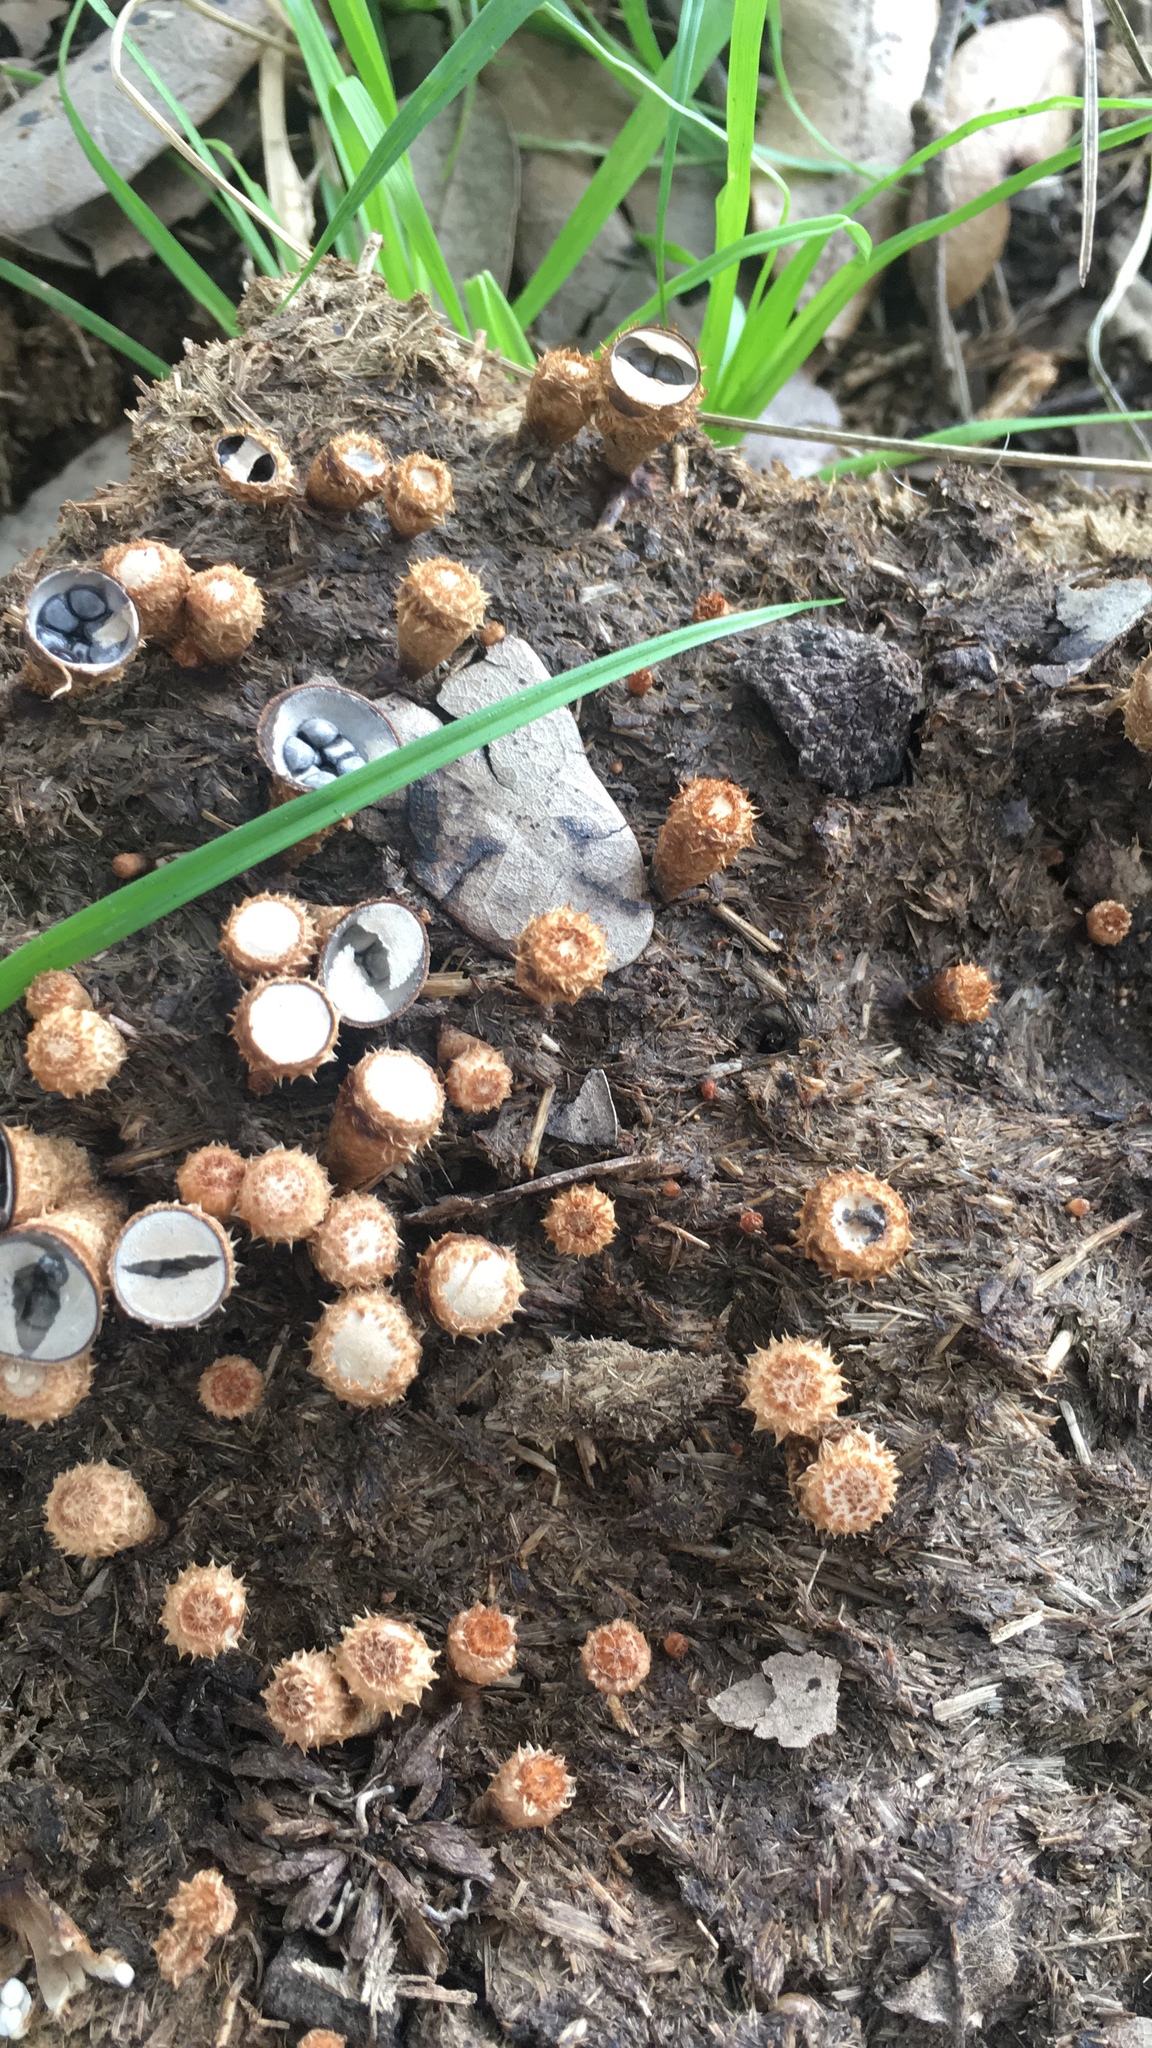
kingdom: Fungi
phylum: Basidiomycota
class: Agaricomycetes
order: Agaricales
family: Agaricaceae
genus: Cyathus
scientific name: Cyathus stercoreus
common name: Dung bird's nest
